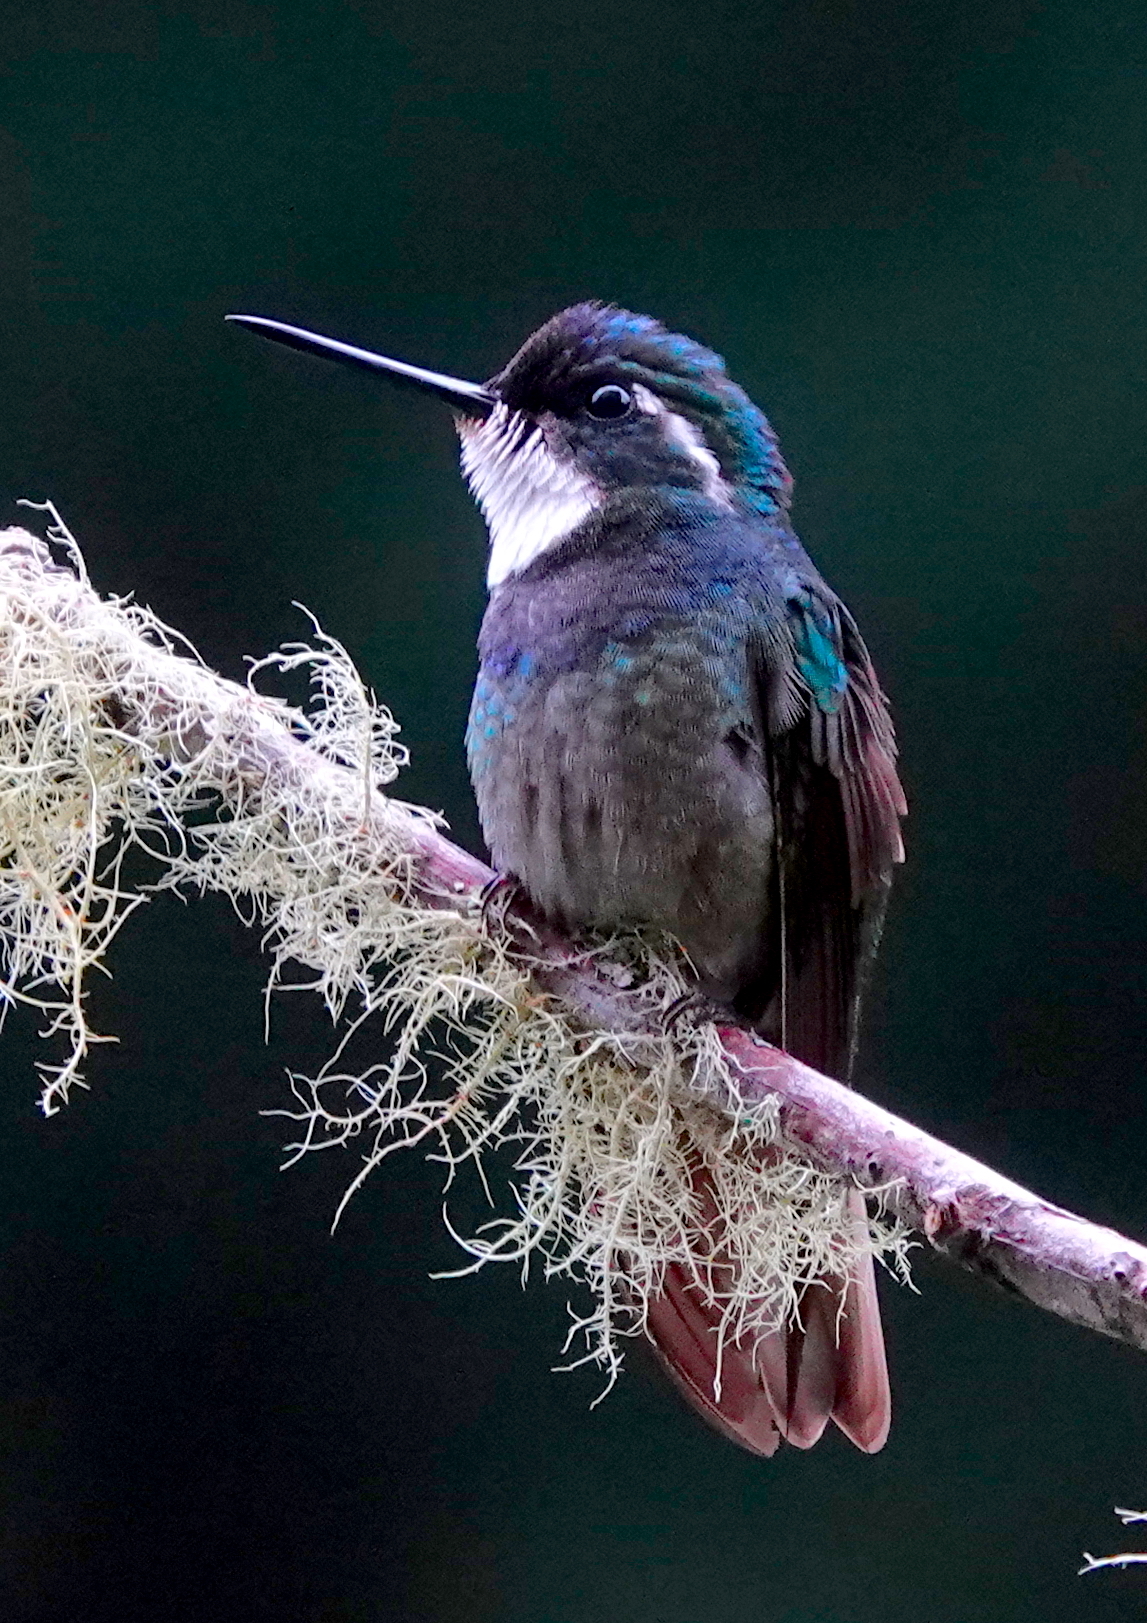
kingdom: Animalia
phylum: Chordata
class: Aves
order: Apodiformes
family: Trochilidae
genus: Lampornis
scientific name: Lampornis castaneoventris
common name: White-throated mountain-gem
